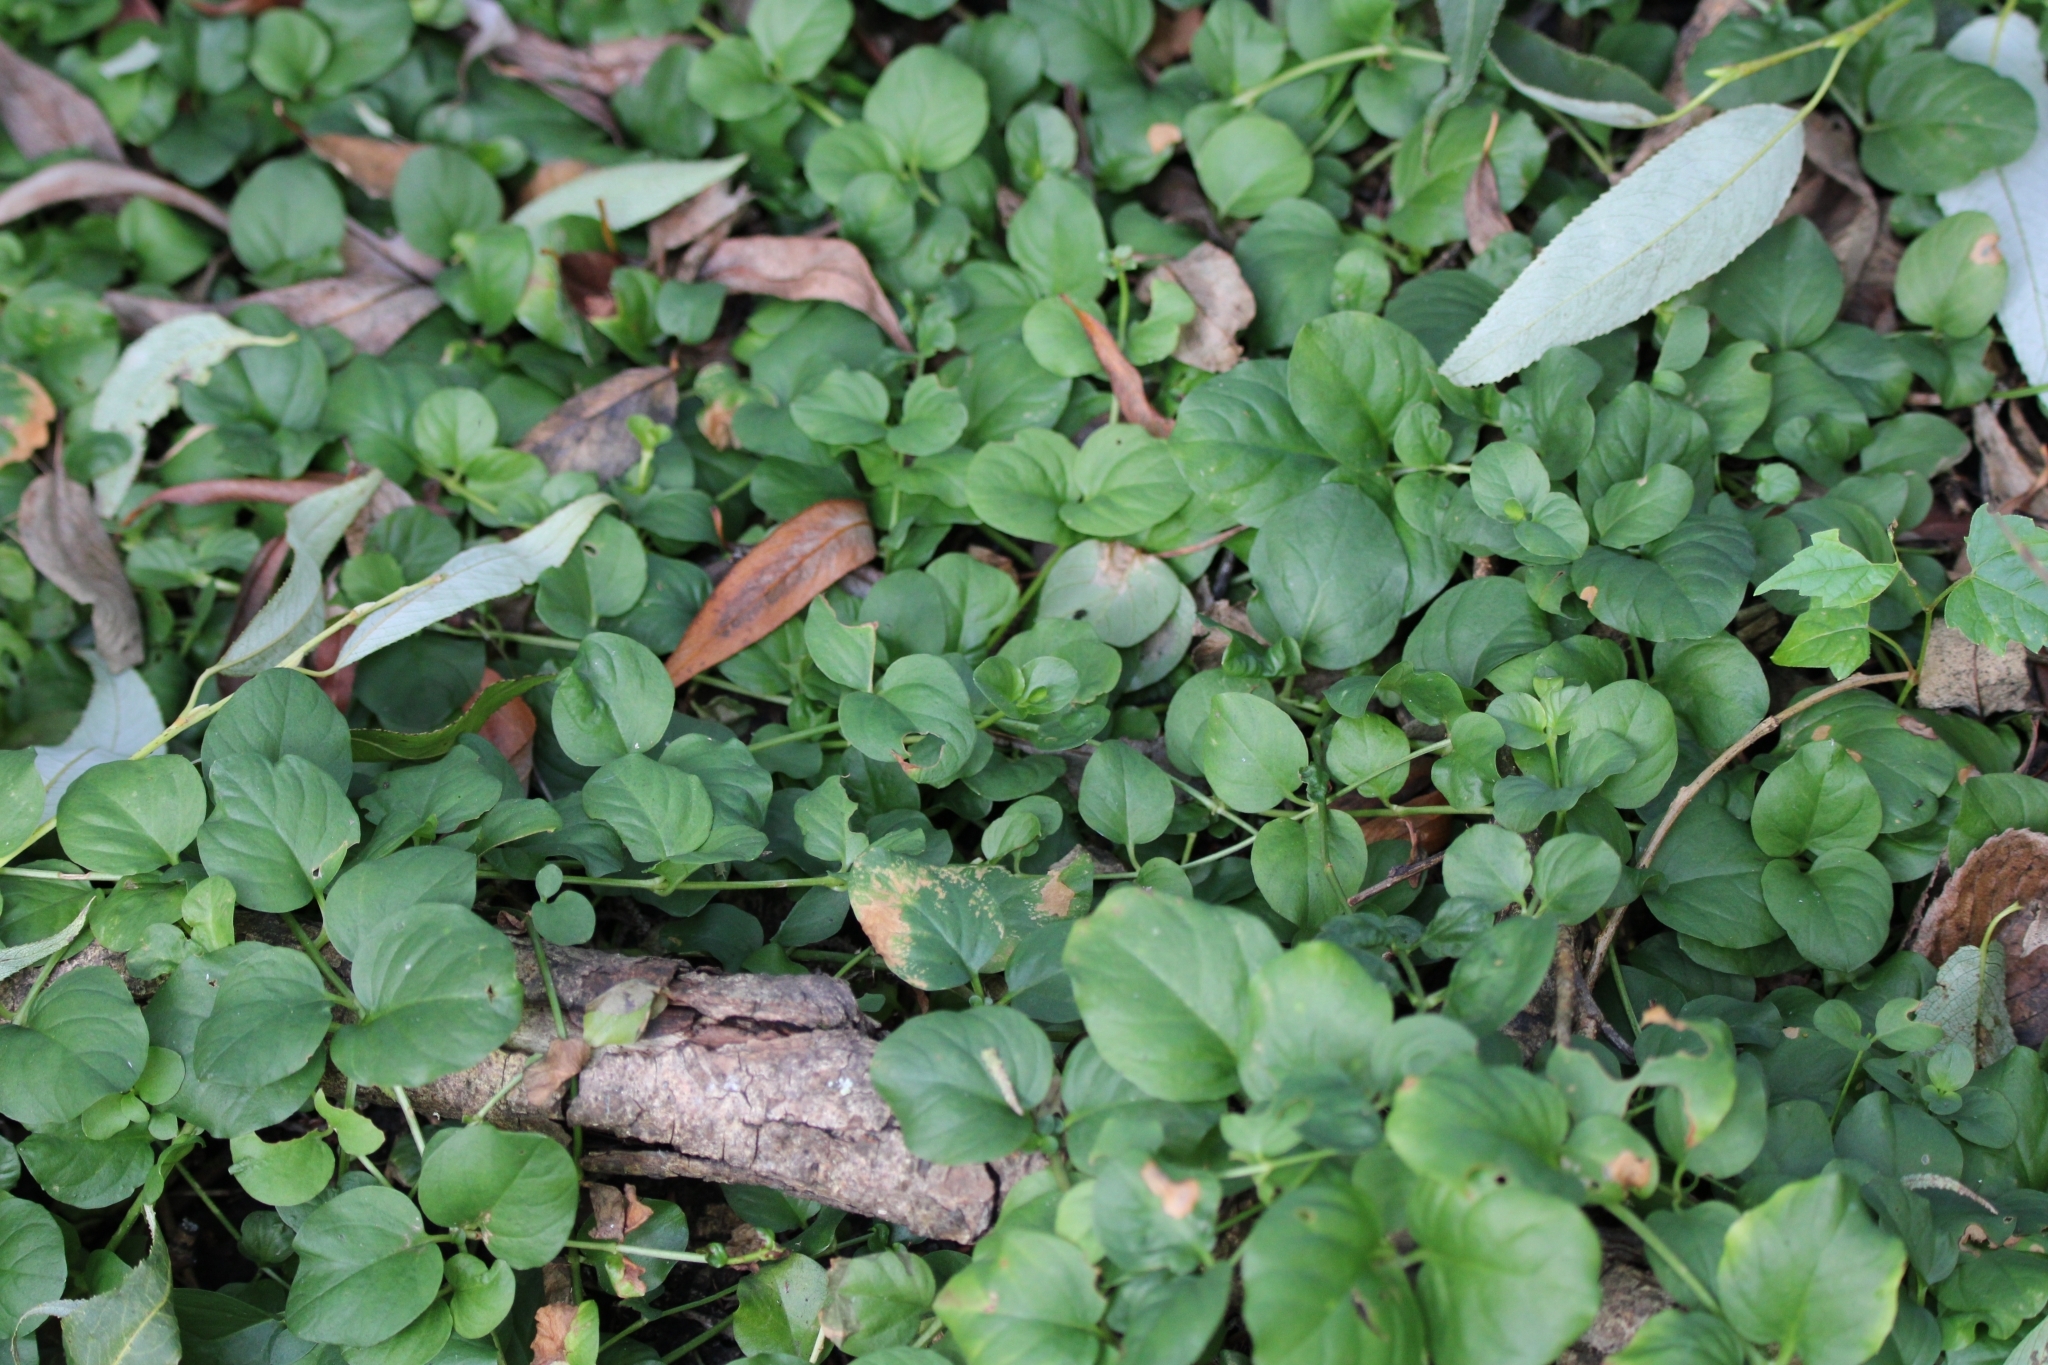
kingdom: Plantae
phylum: Tracheophyta
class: Magnoliopsida
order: Ericales
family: Primulaceae
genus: Lysimachia
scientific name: Lysimachia nummularia
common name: Moneywort
